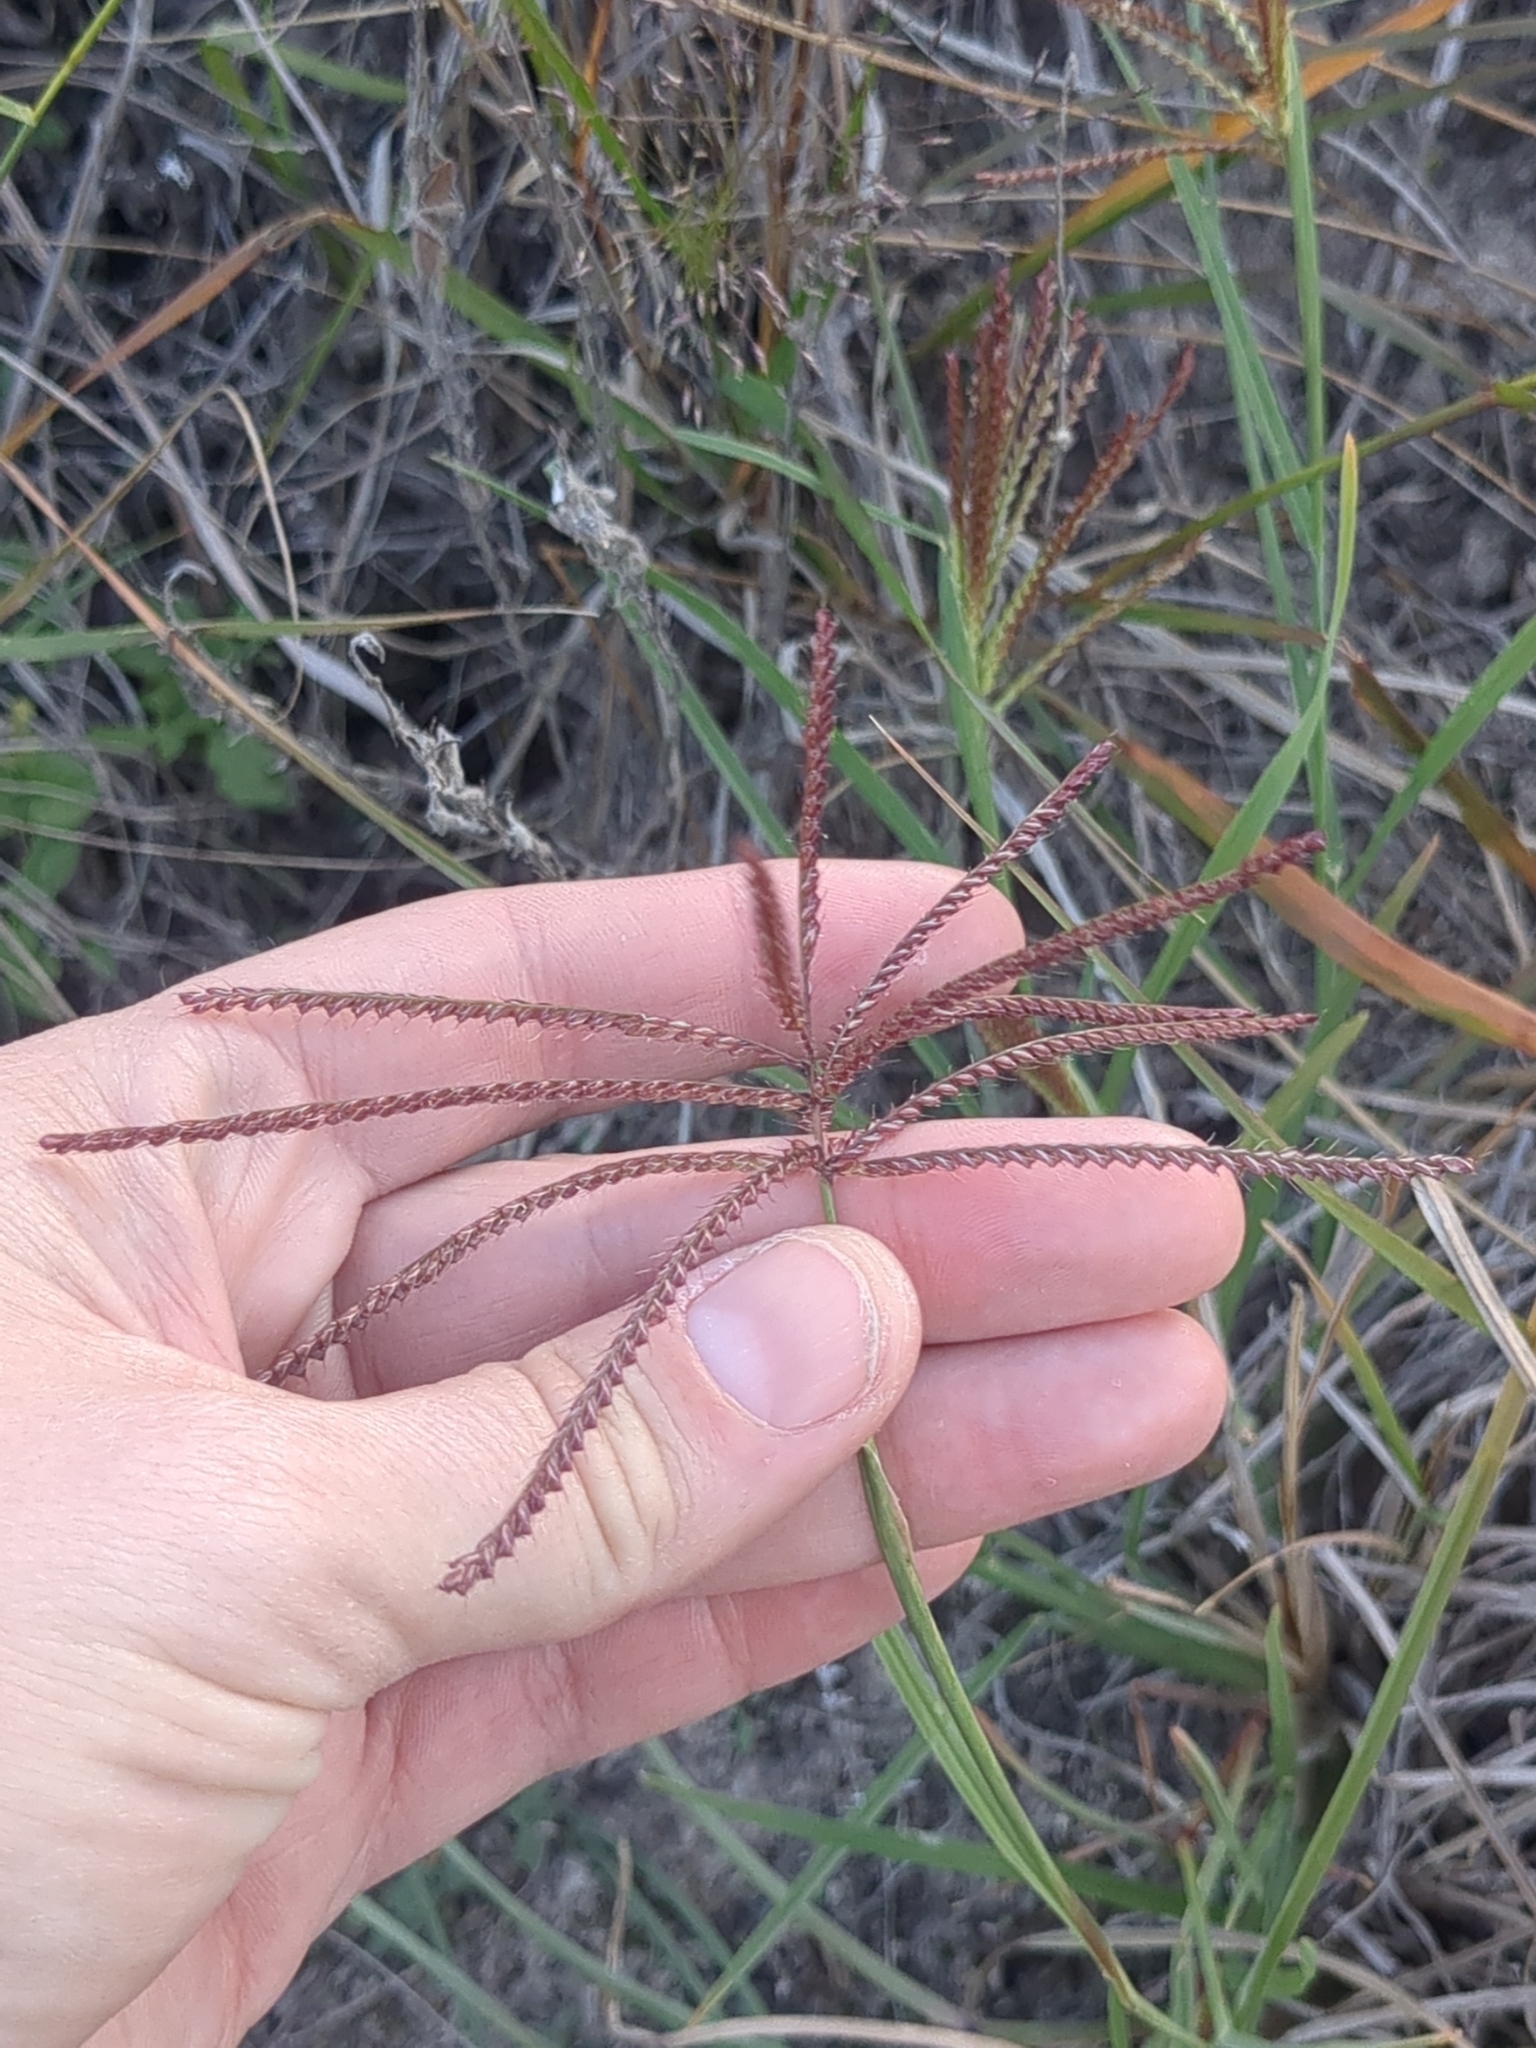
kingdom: Plantae
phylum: Tracheophyta
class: Liliopsida
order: Poales
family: Poaceae
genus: Chloris
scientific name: Chloris cucullata
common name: Hooded windmill grass
